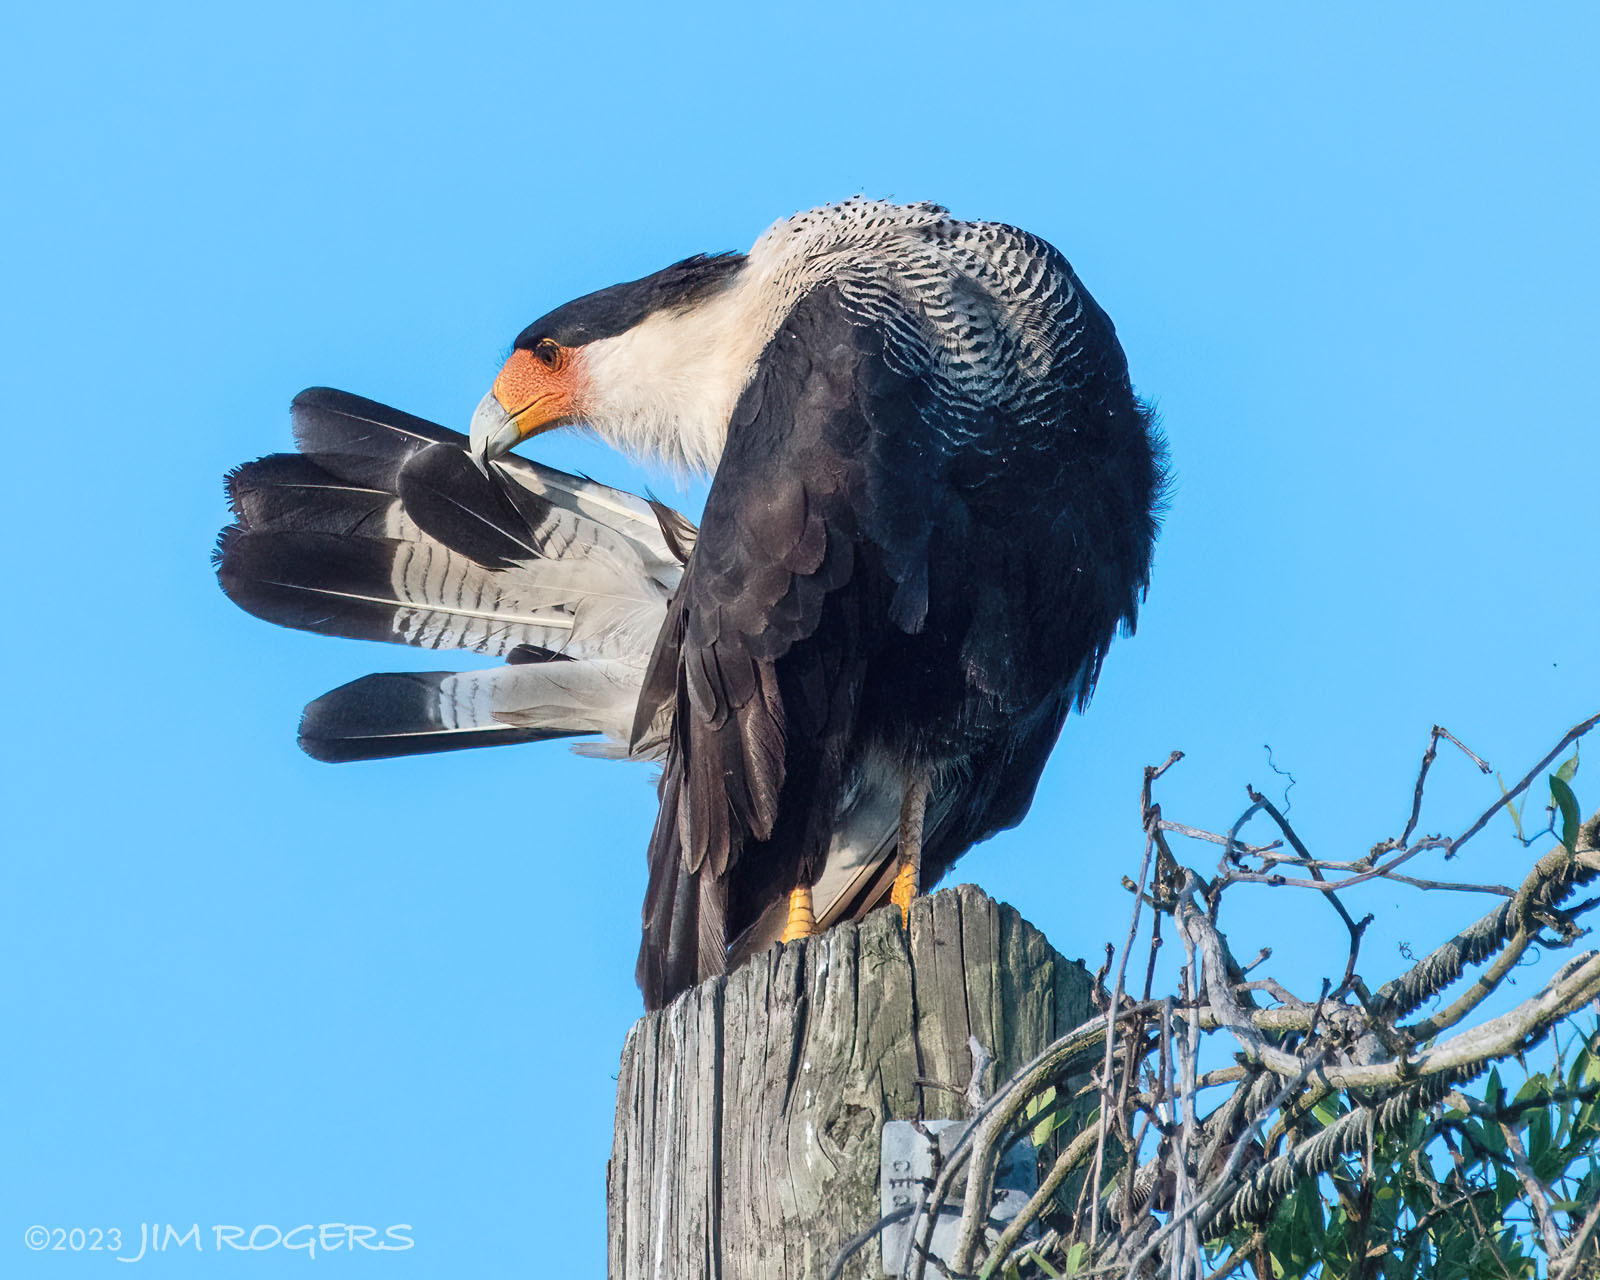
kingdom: Animalia
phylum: Chordata
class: Aves
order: Falconiformes
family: Falconidae
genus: Caracara
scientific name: Caracara plancus
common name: Southern caracara
